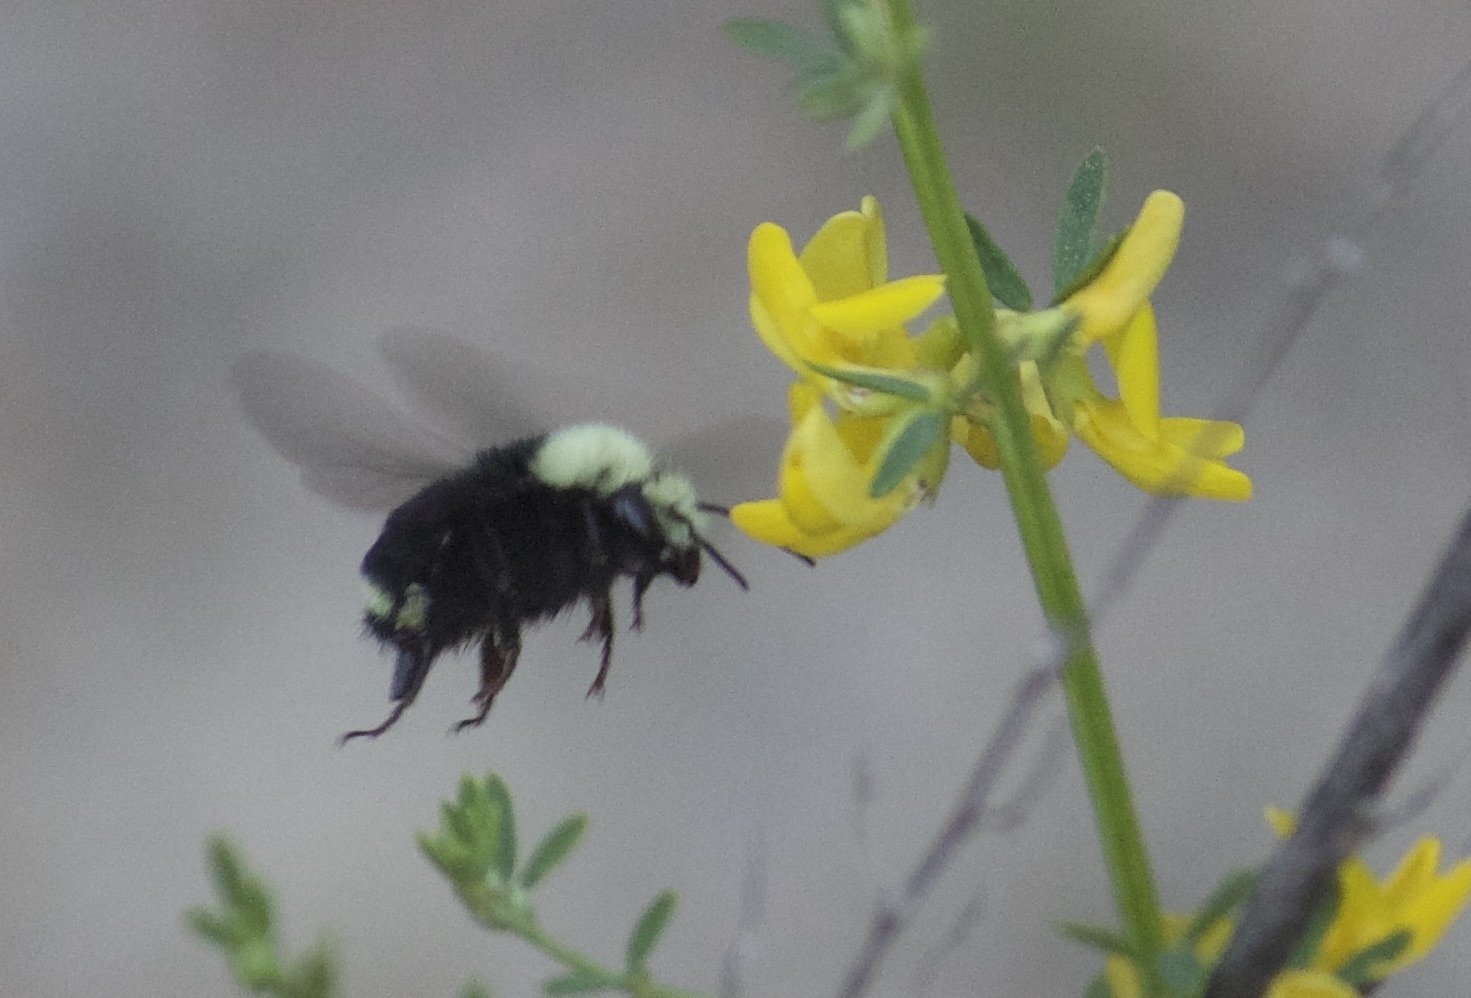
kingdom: Animalia
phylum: Arthropoda
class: Insecta
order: Hymenoptera
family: Apidae
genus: Bombus
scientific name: Bombus vosnesenskii
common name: Vosnesensky bumble bee
